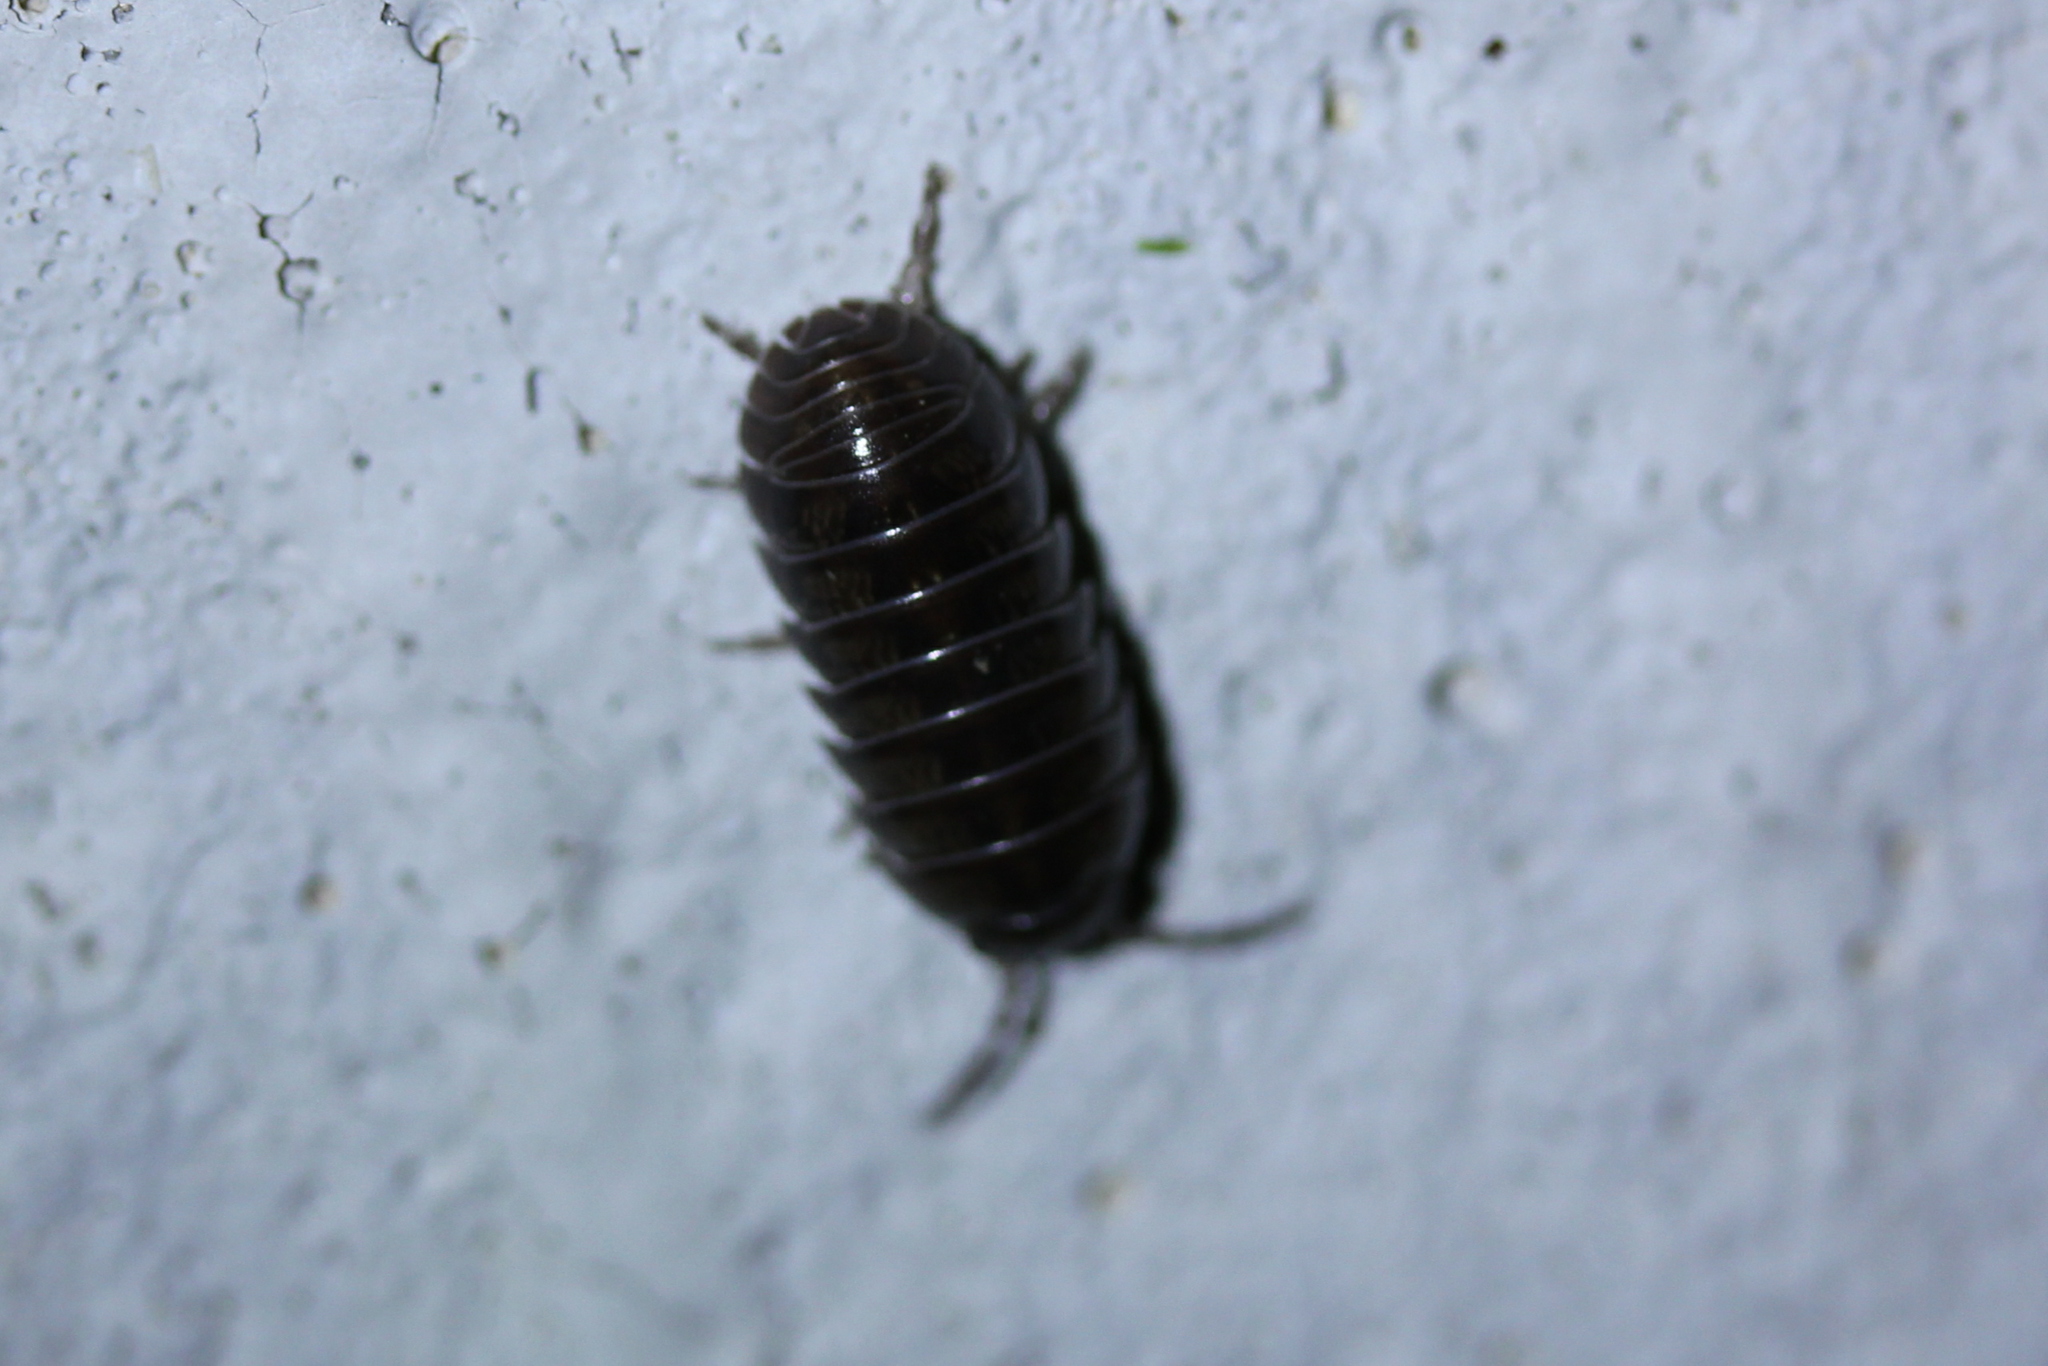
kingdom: Animalia
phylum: Arthropoda
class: Malacostraca
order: Isopoda
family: Armadillidiidae
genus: Armadillidium
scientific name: Armadillidium vulgare
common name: Common pill woodlouse
